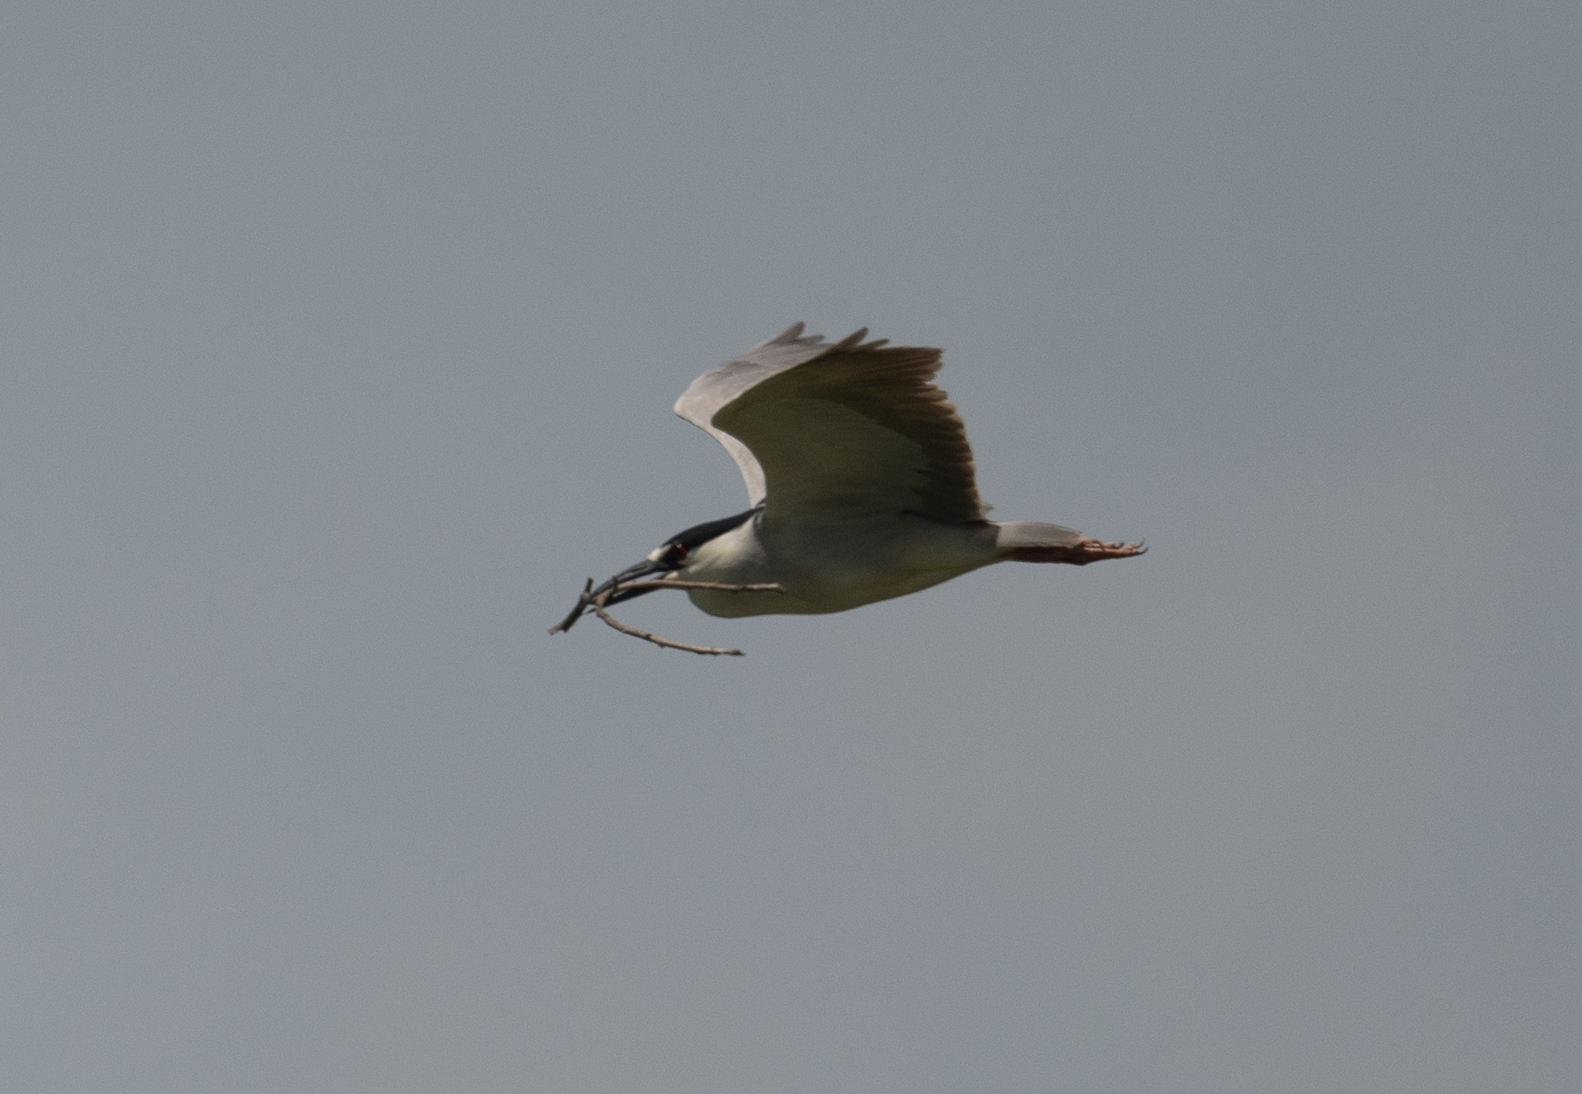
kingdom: Animalia
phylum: Chordata
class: Aves
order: Pelecaniformes
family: Ardeidae
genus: Nycticorax
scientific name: Nycticorax nycticorax
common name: Black-crowned night heron
